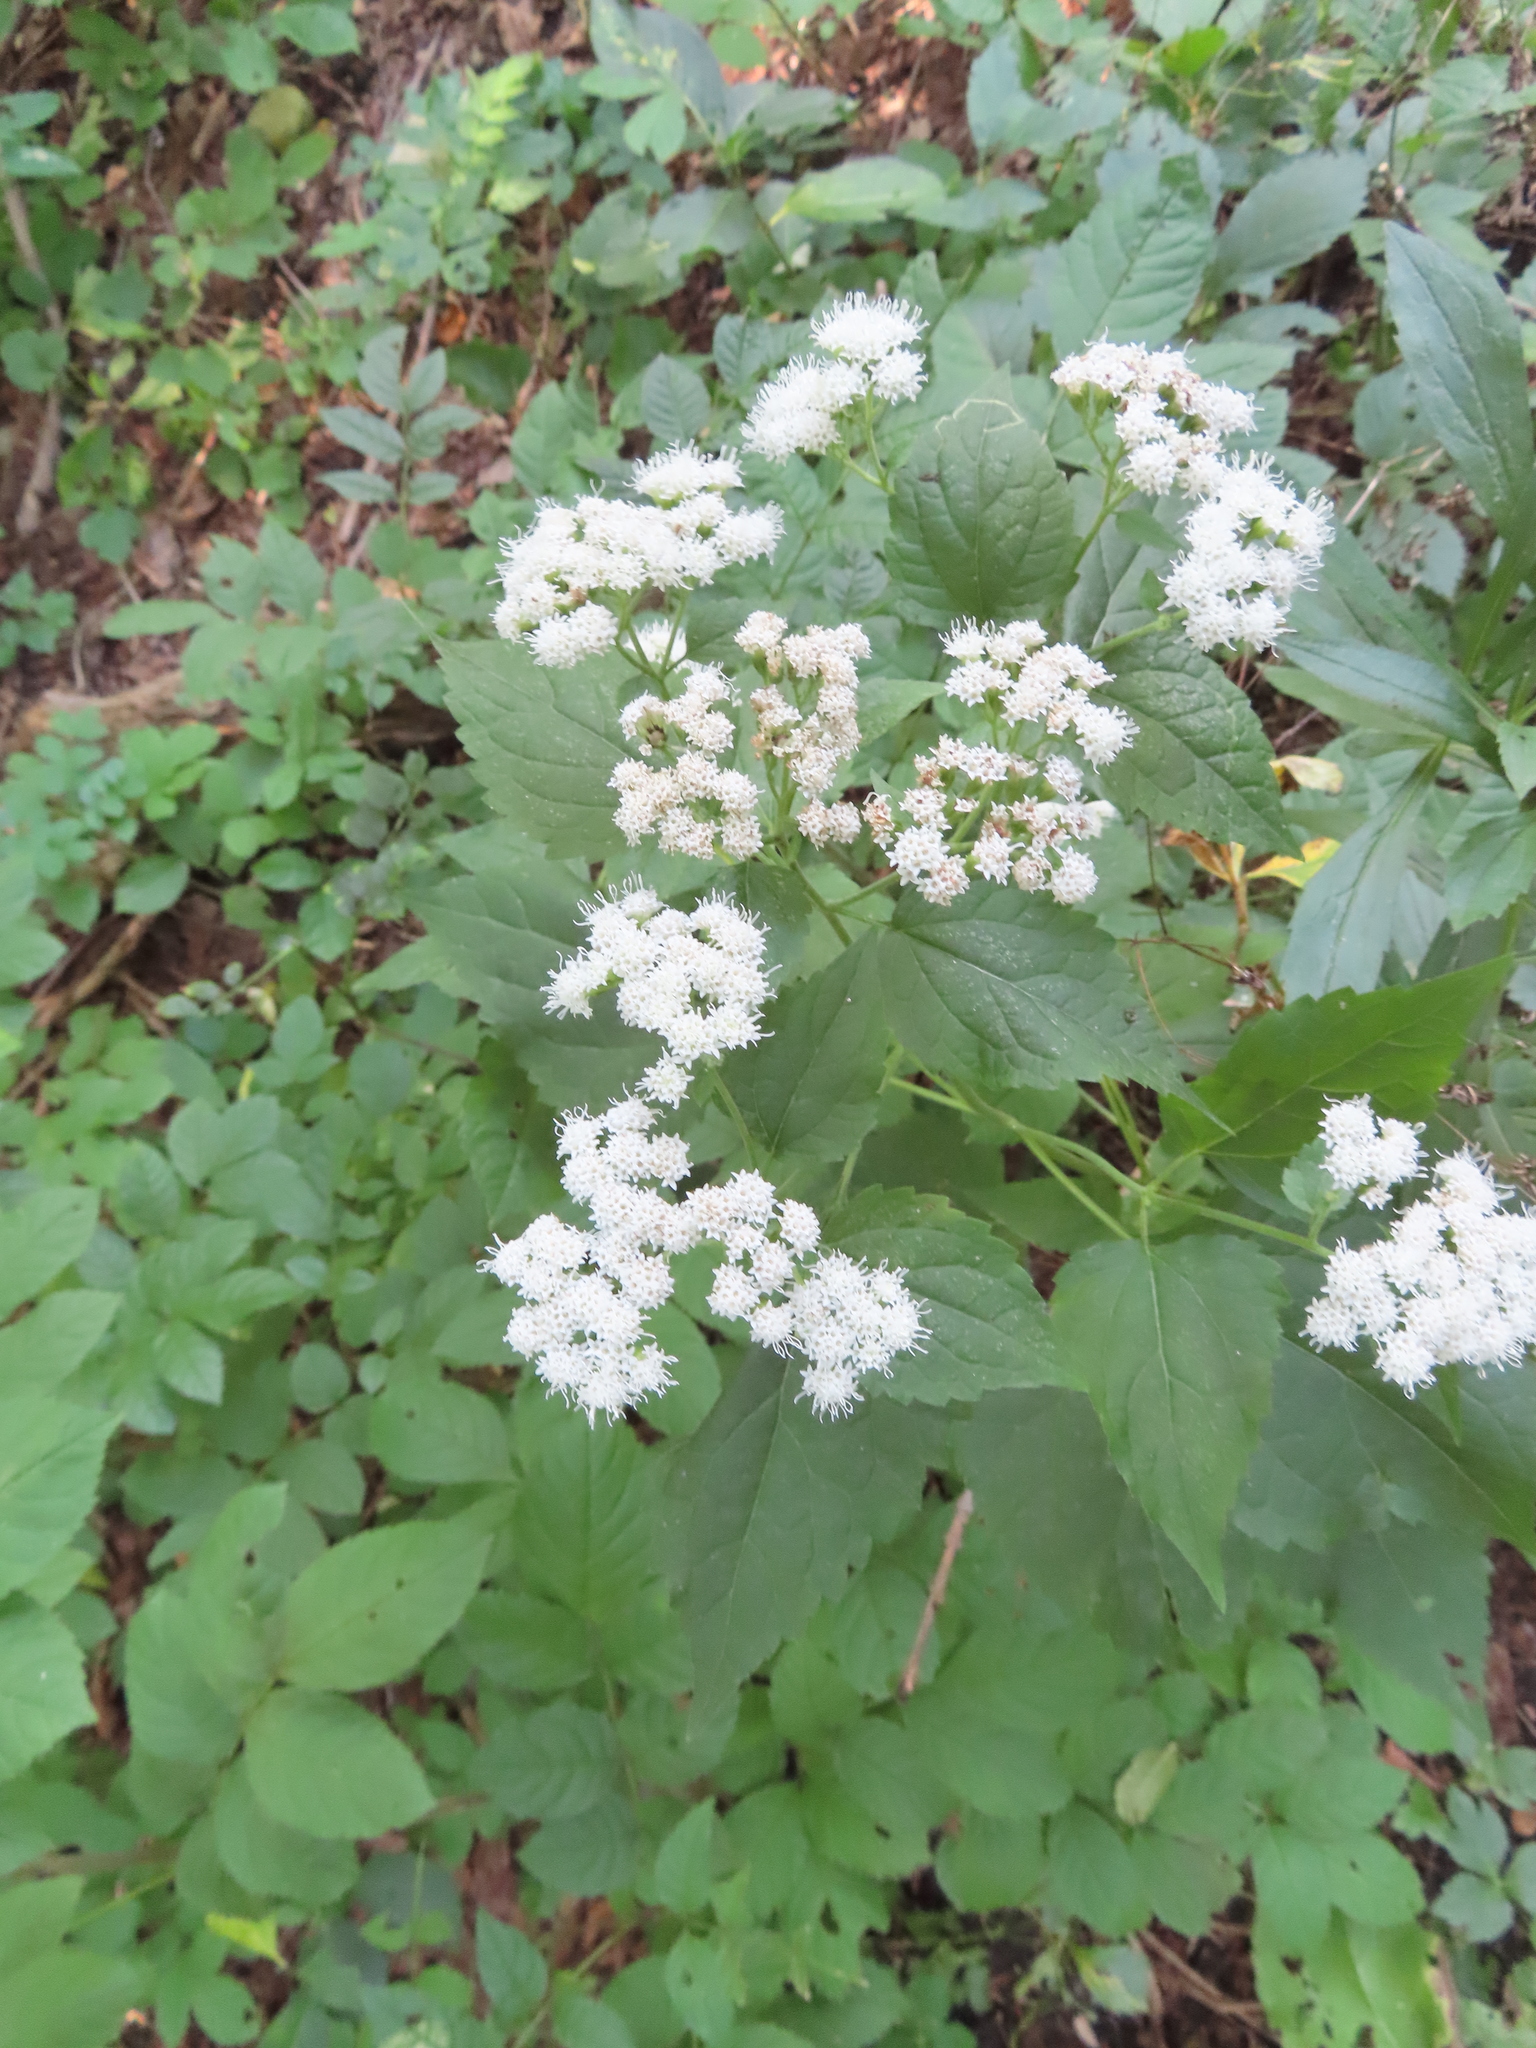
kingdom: Plantae
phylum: Tracheophyta
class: Magnoliopsida
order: Asterales
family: Asteraceae
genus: Ageratina
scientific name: Ageratina altissima
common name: White snakeroot
